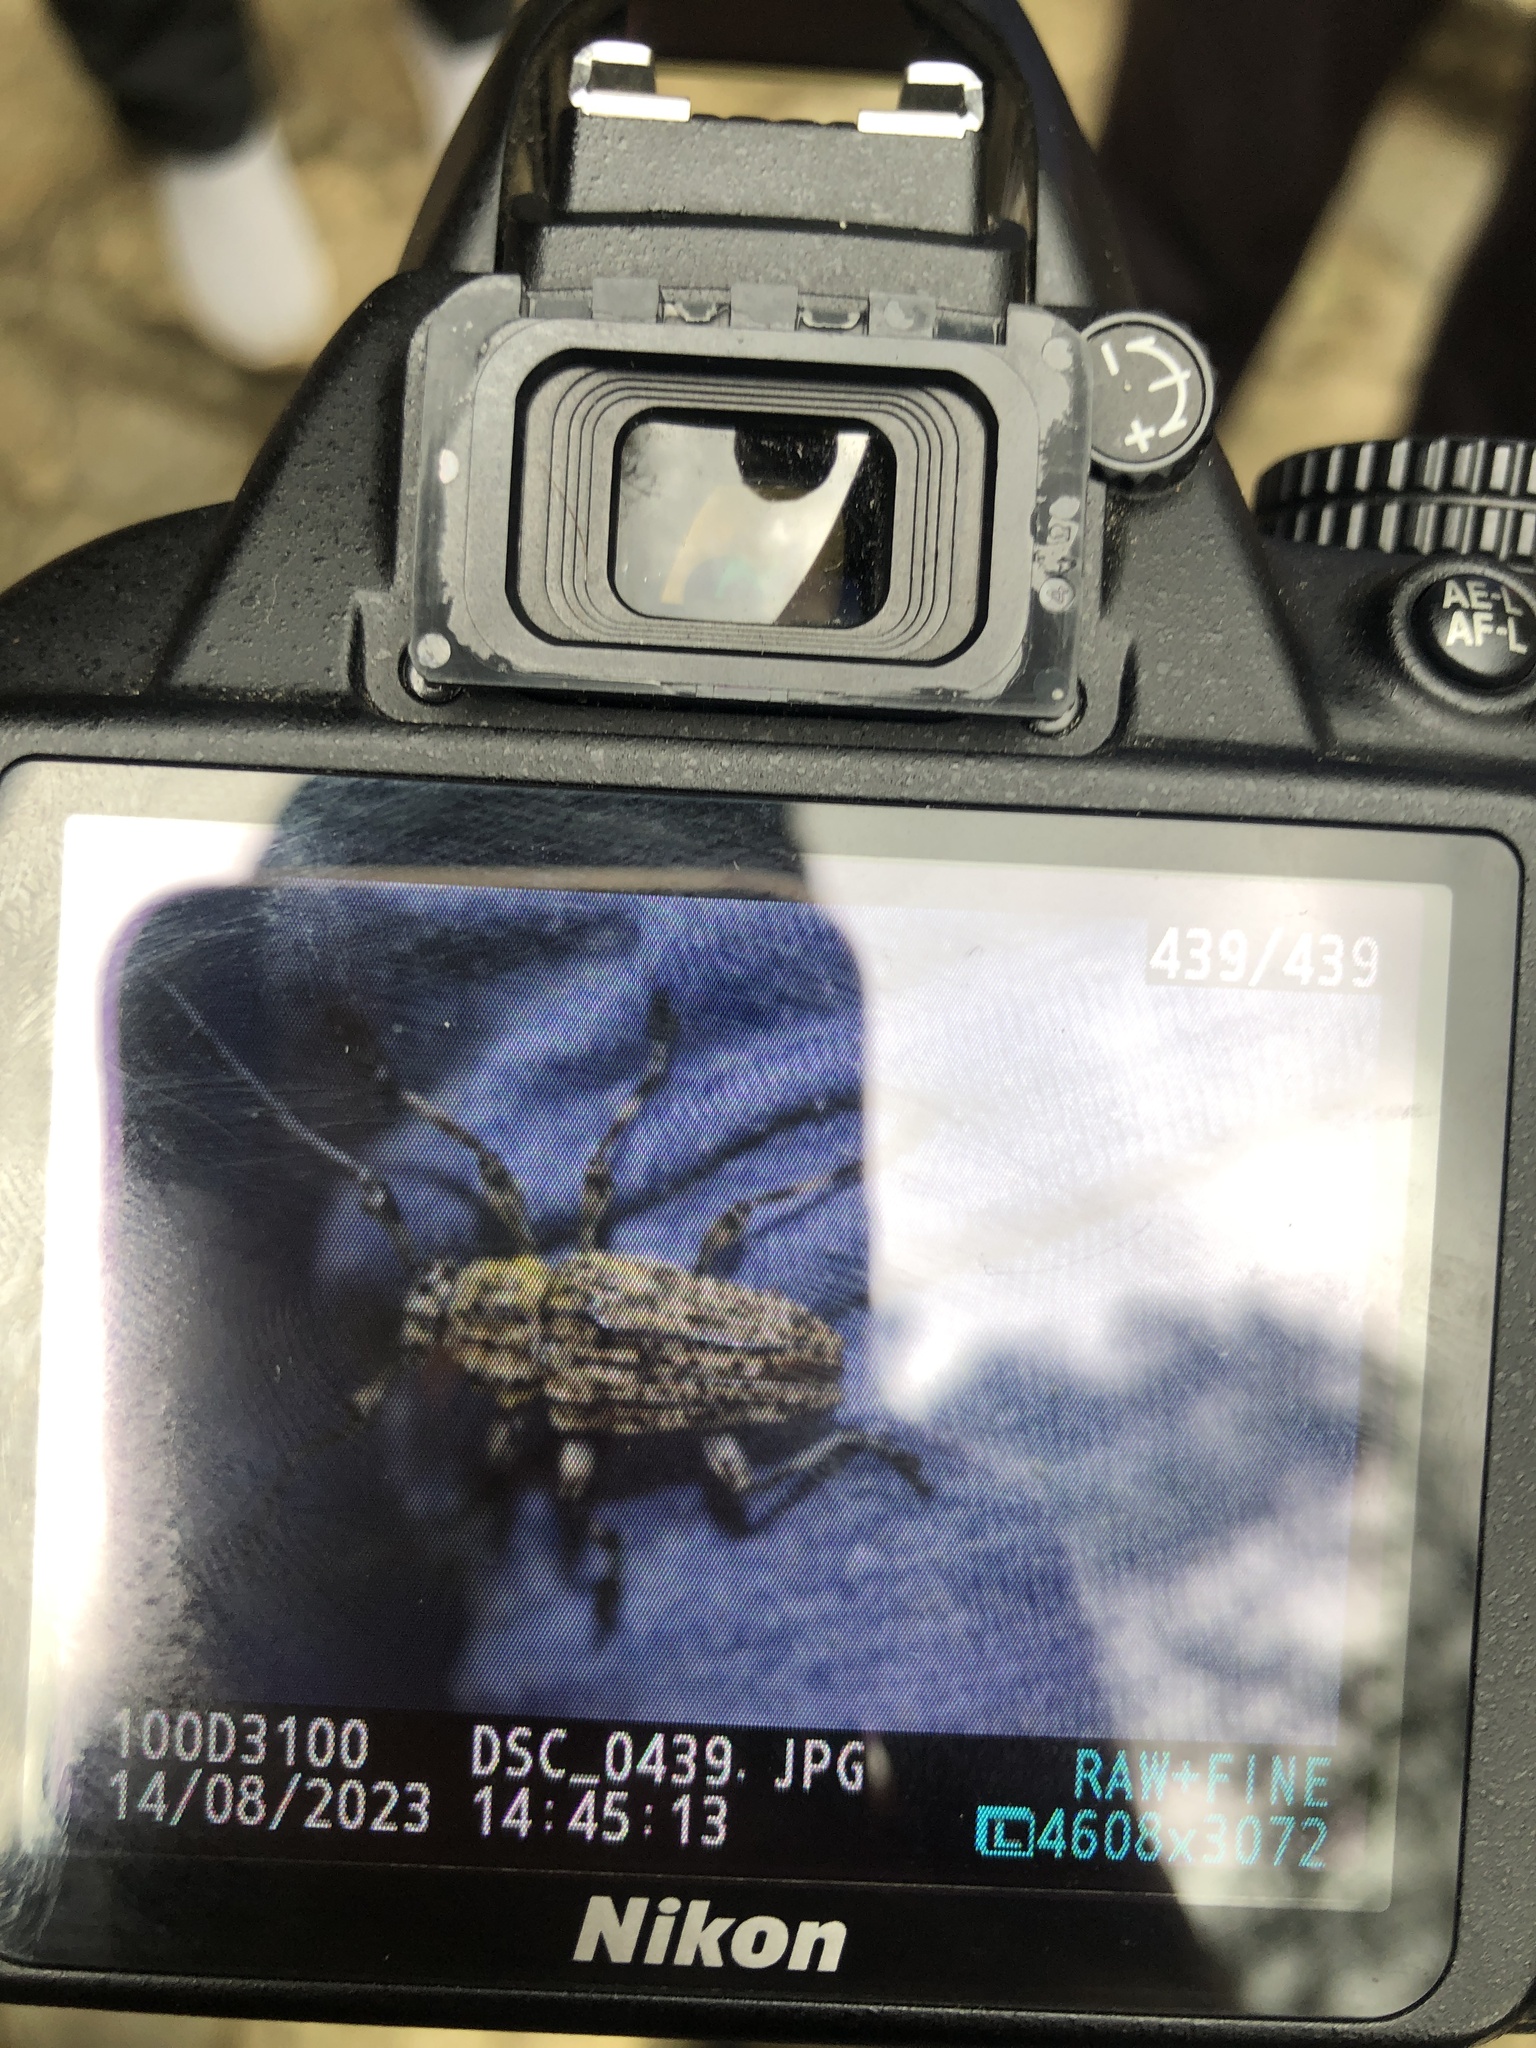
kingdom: Animalia
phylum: Arthropoda
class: Insecta
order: Coleoptera
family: Cerambycidae
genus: Steirastoma
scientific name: Steirastoma breve
